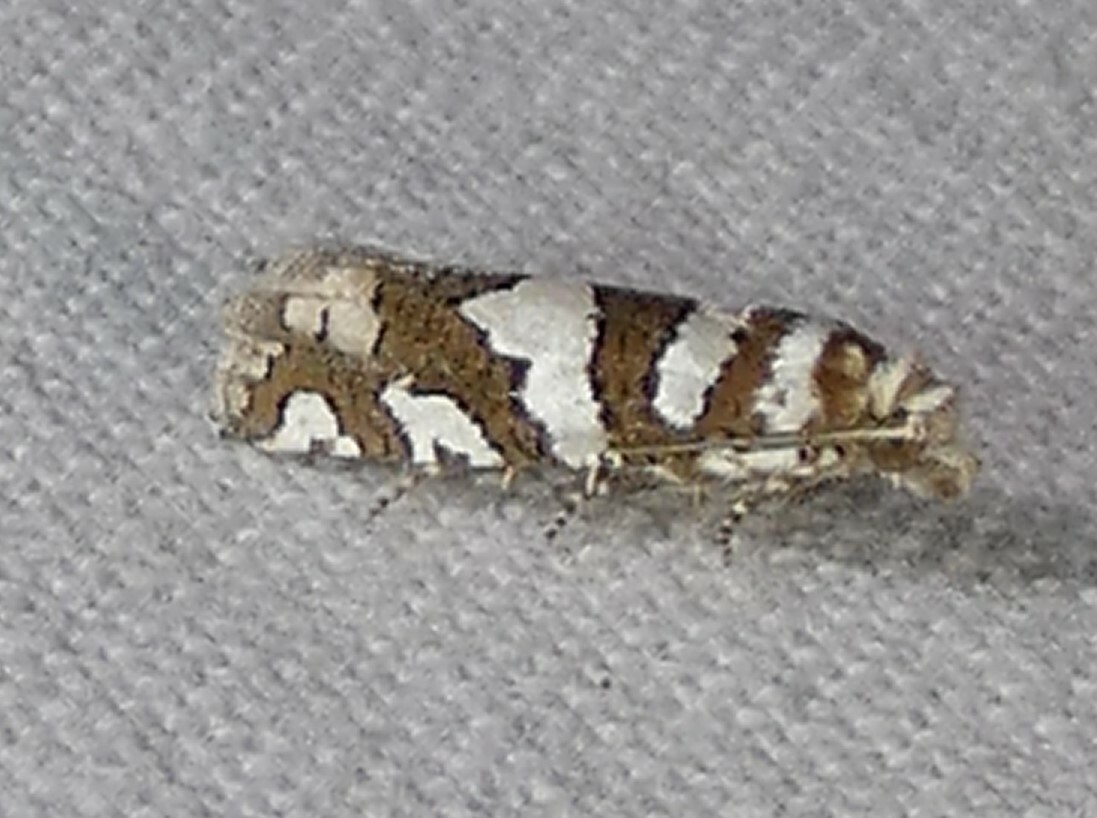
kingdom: Animalia
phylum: Arthropoda
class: Insecta
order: Lepidoptera
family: Tortricidae
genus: Pelochrista
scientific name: Pelochrista robinsonana
